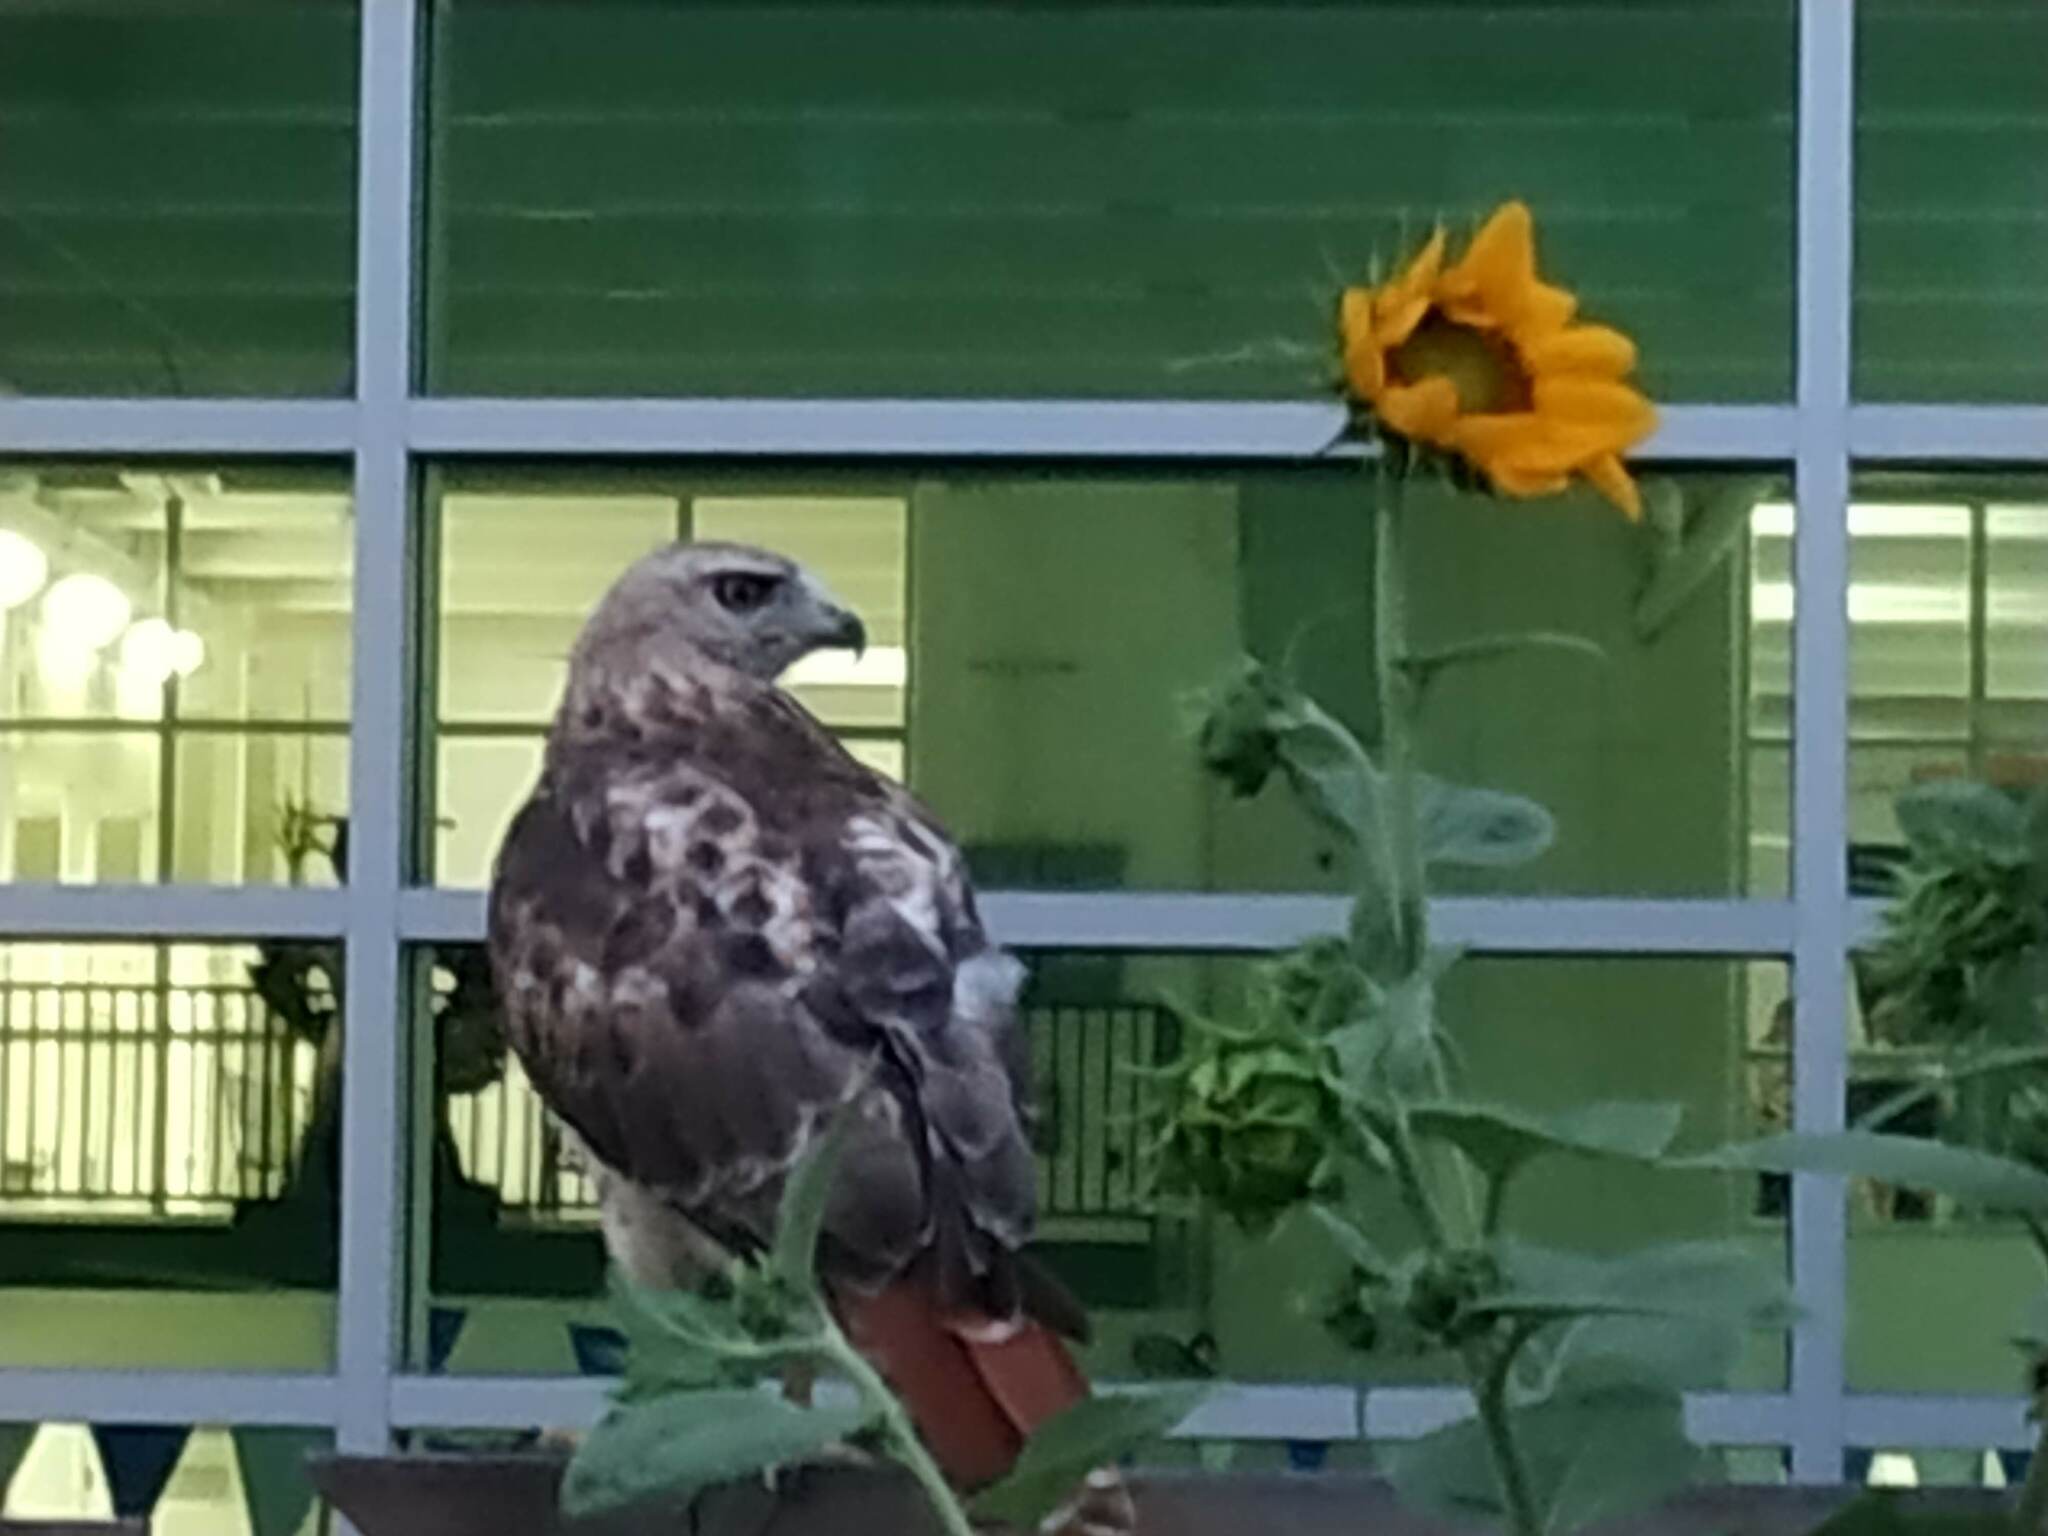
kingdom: Animalia
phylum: Chordata
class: Aves
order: Accipitriformes
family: Accipitridae
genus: Buteo
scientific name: Buteo jamaicensis
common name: Red-tailed hawk
